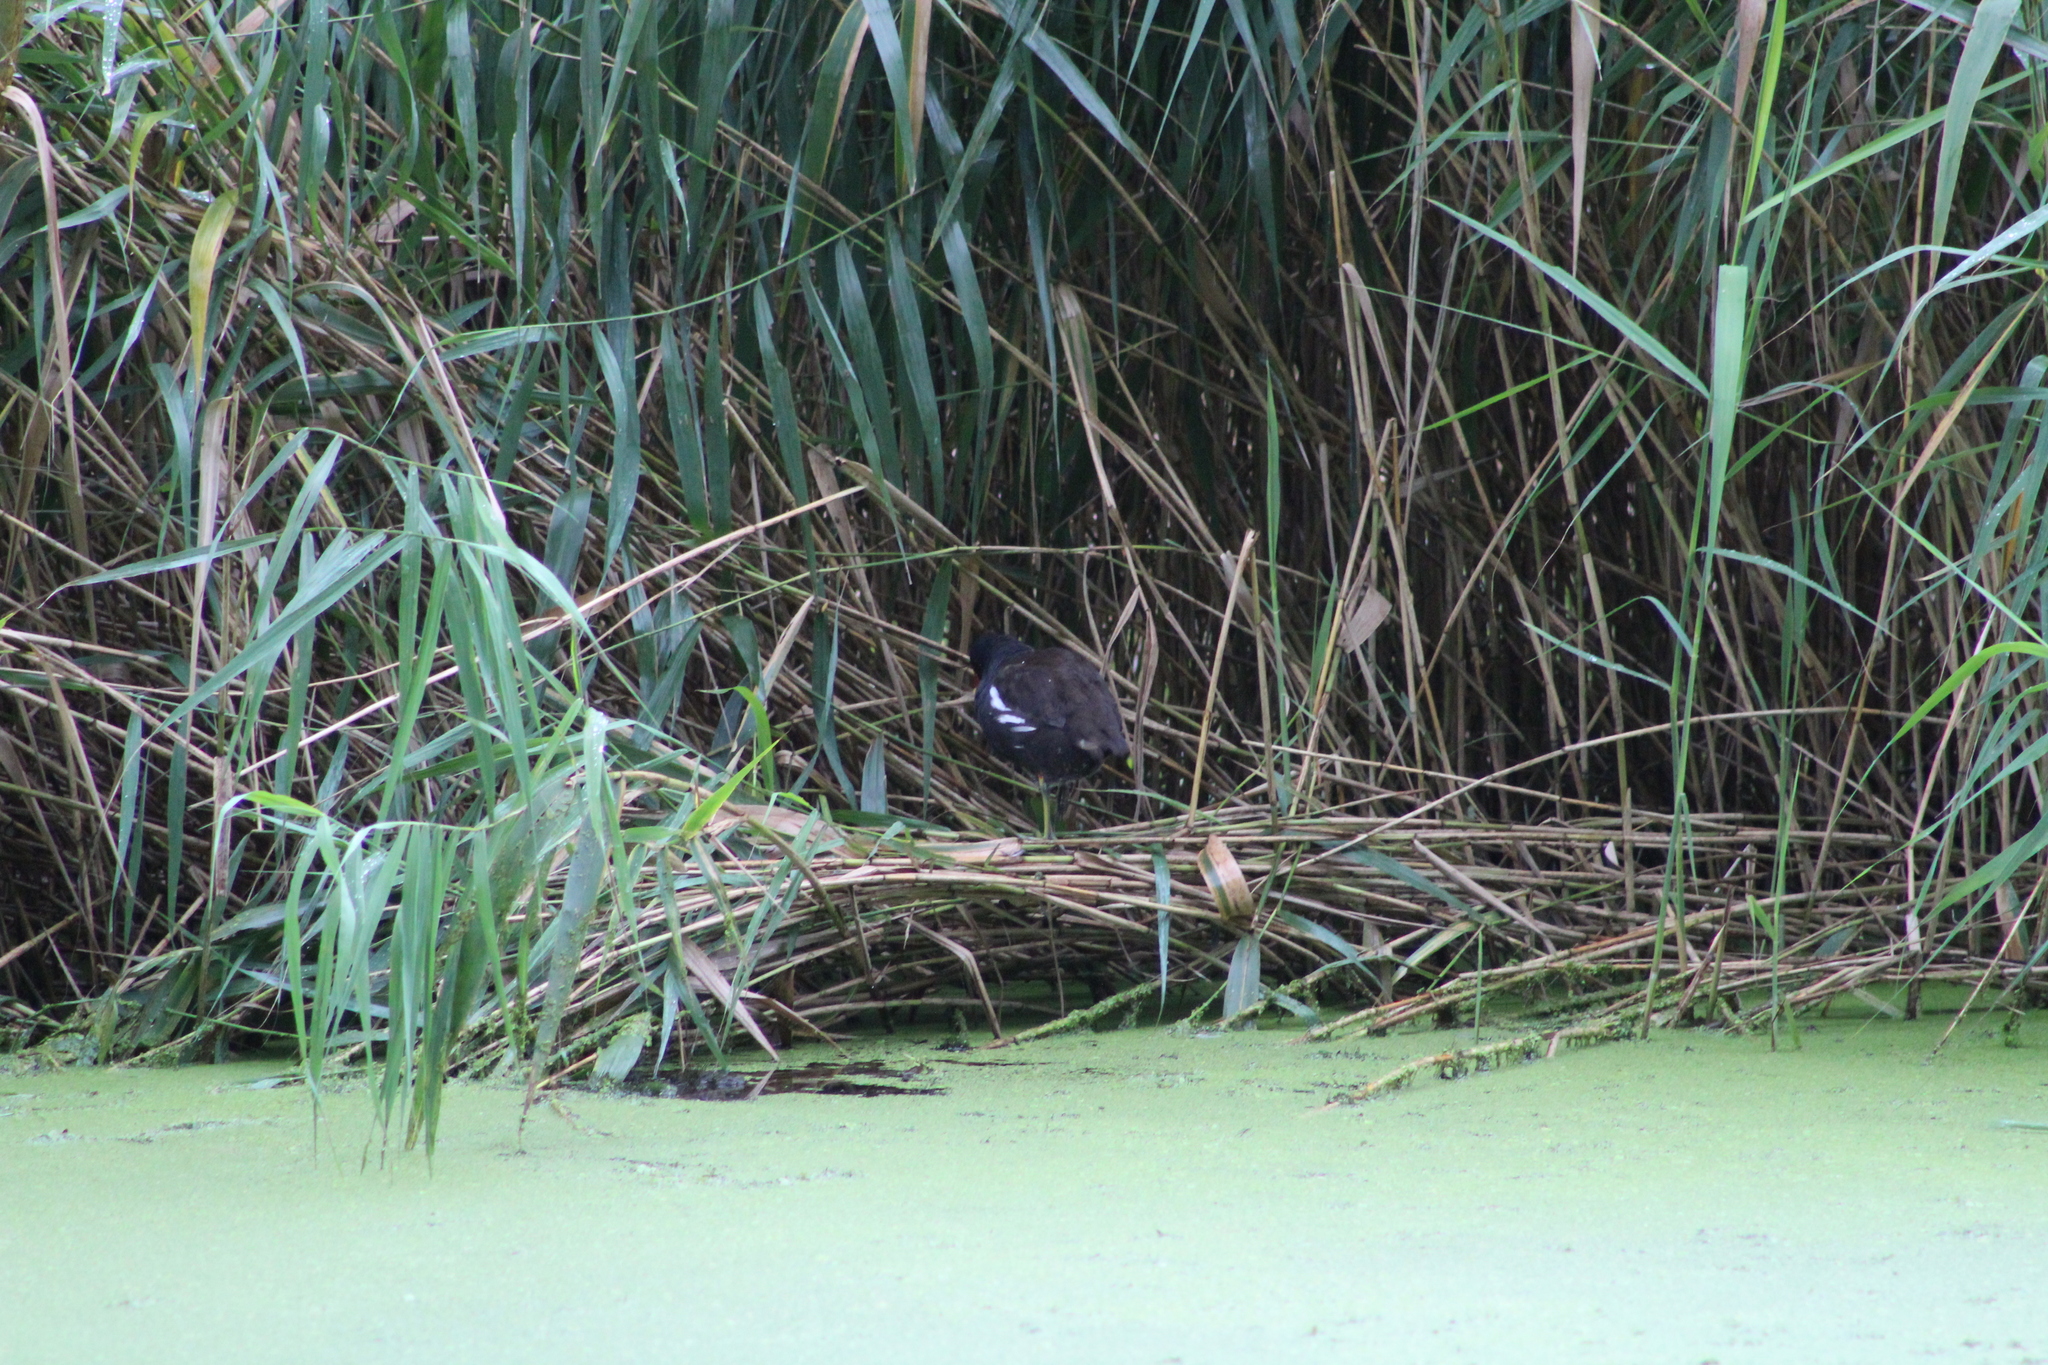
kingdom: Animalia
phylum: Chordata
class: Aves
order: Gruiformes
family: Rallidae
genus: Gallinula
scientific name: Gallinula chloropus
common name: Common moorhen
